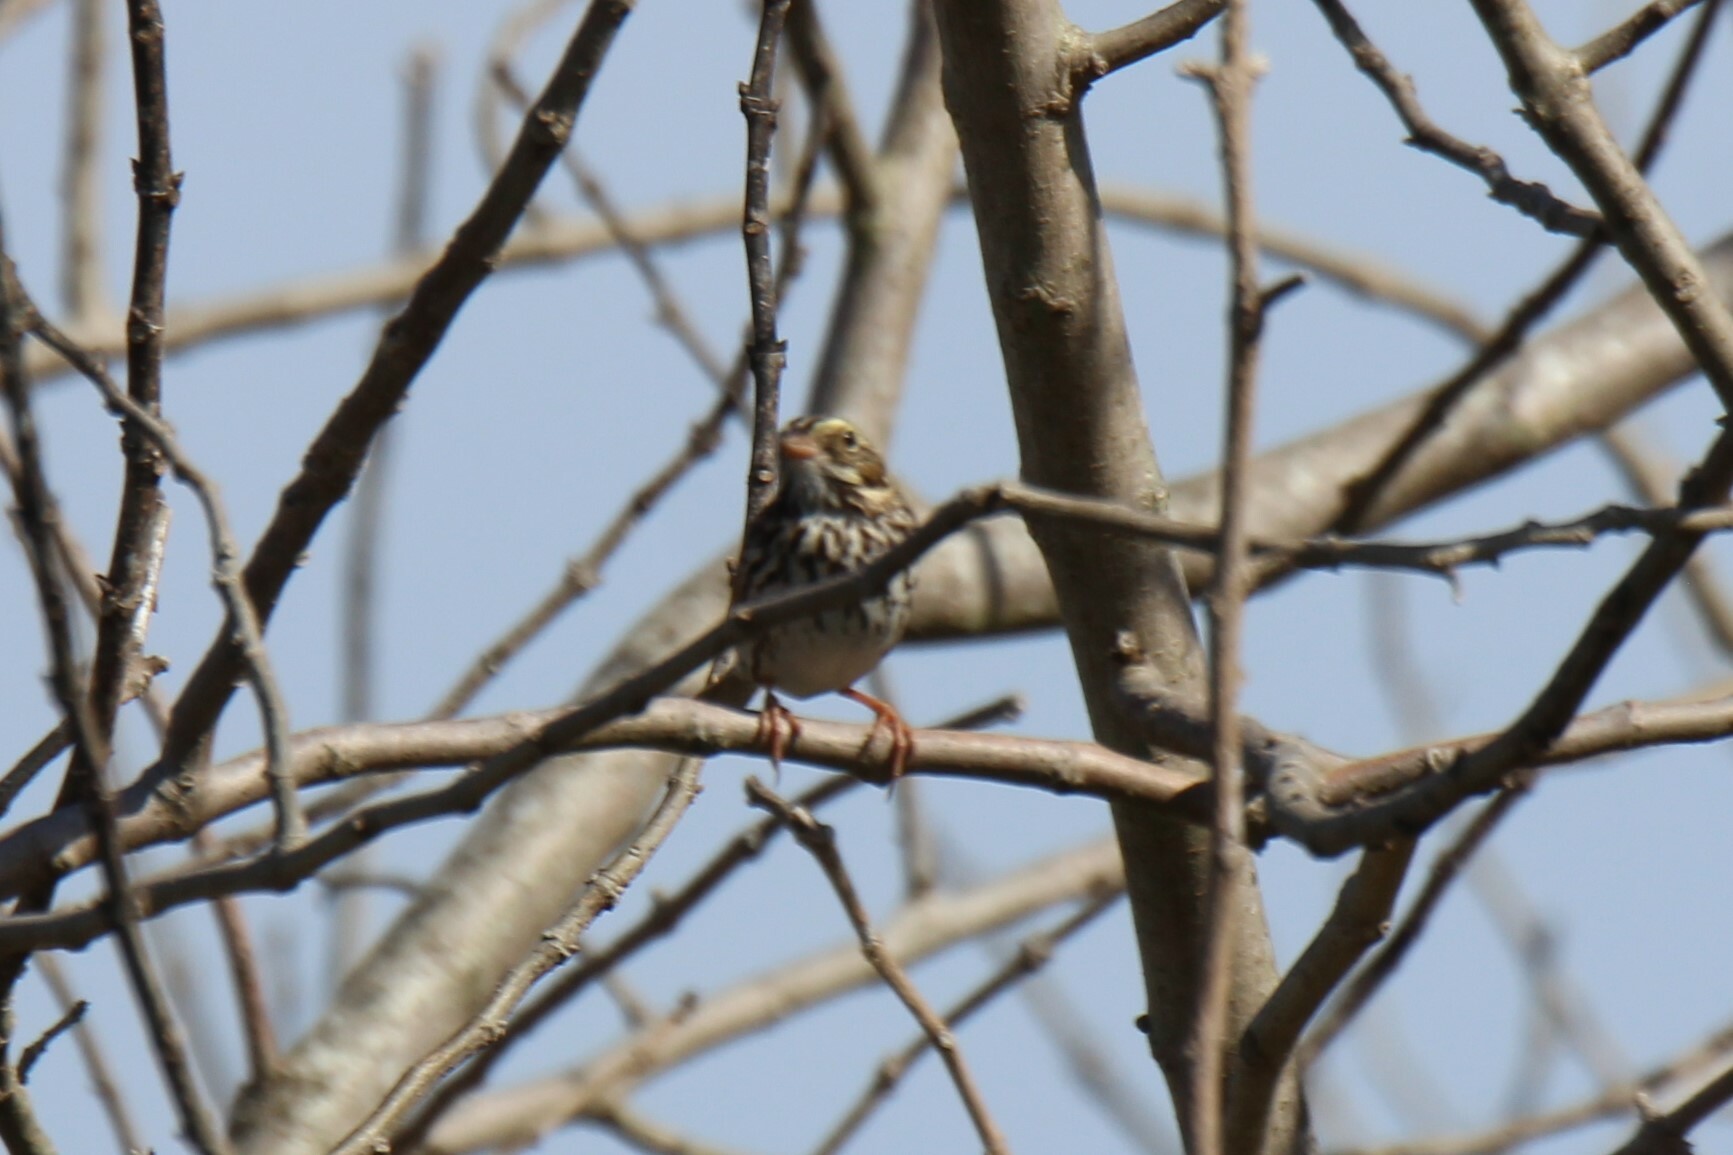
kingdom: Animalia
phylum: Chordata
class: Aves
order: Passeriformes
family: Passerellidae
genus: Passerculus
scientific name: Passerculus sandwichensis
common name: Savannah sparrow
